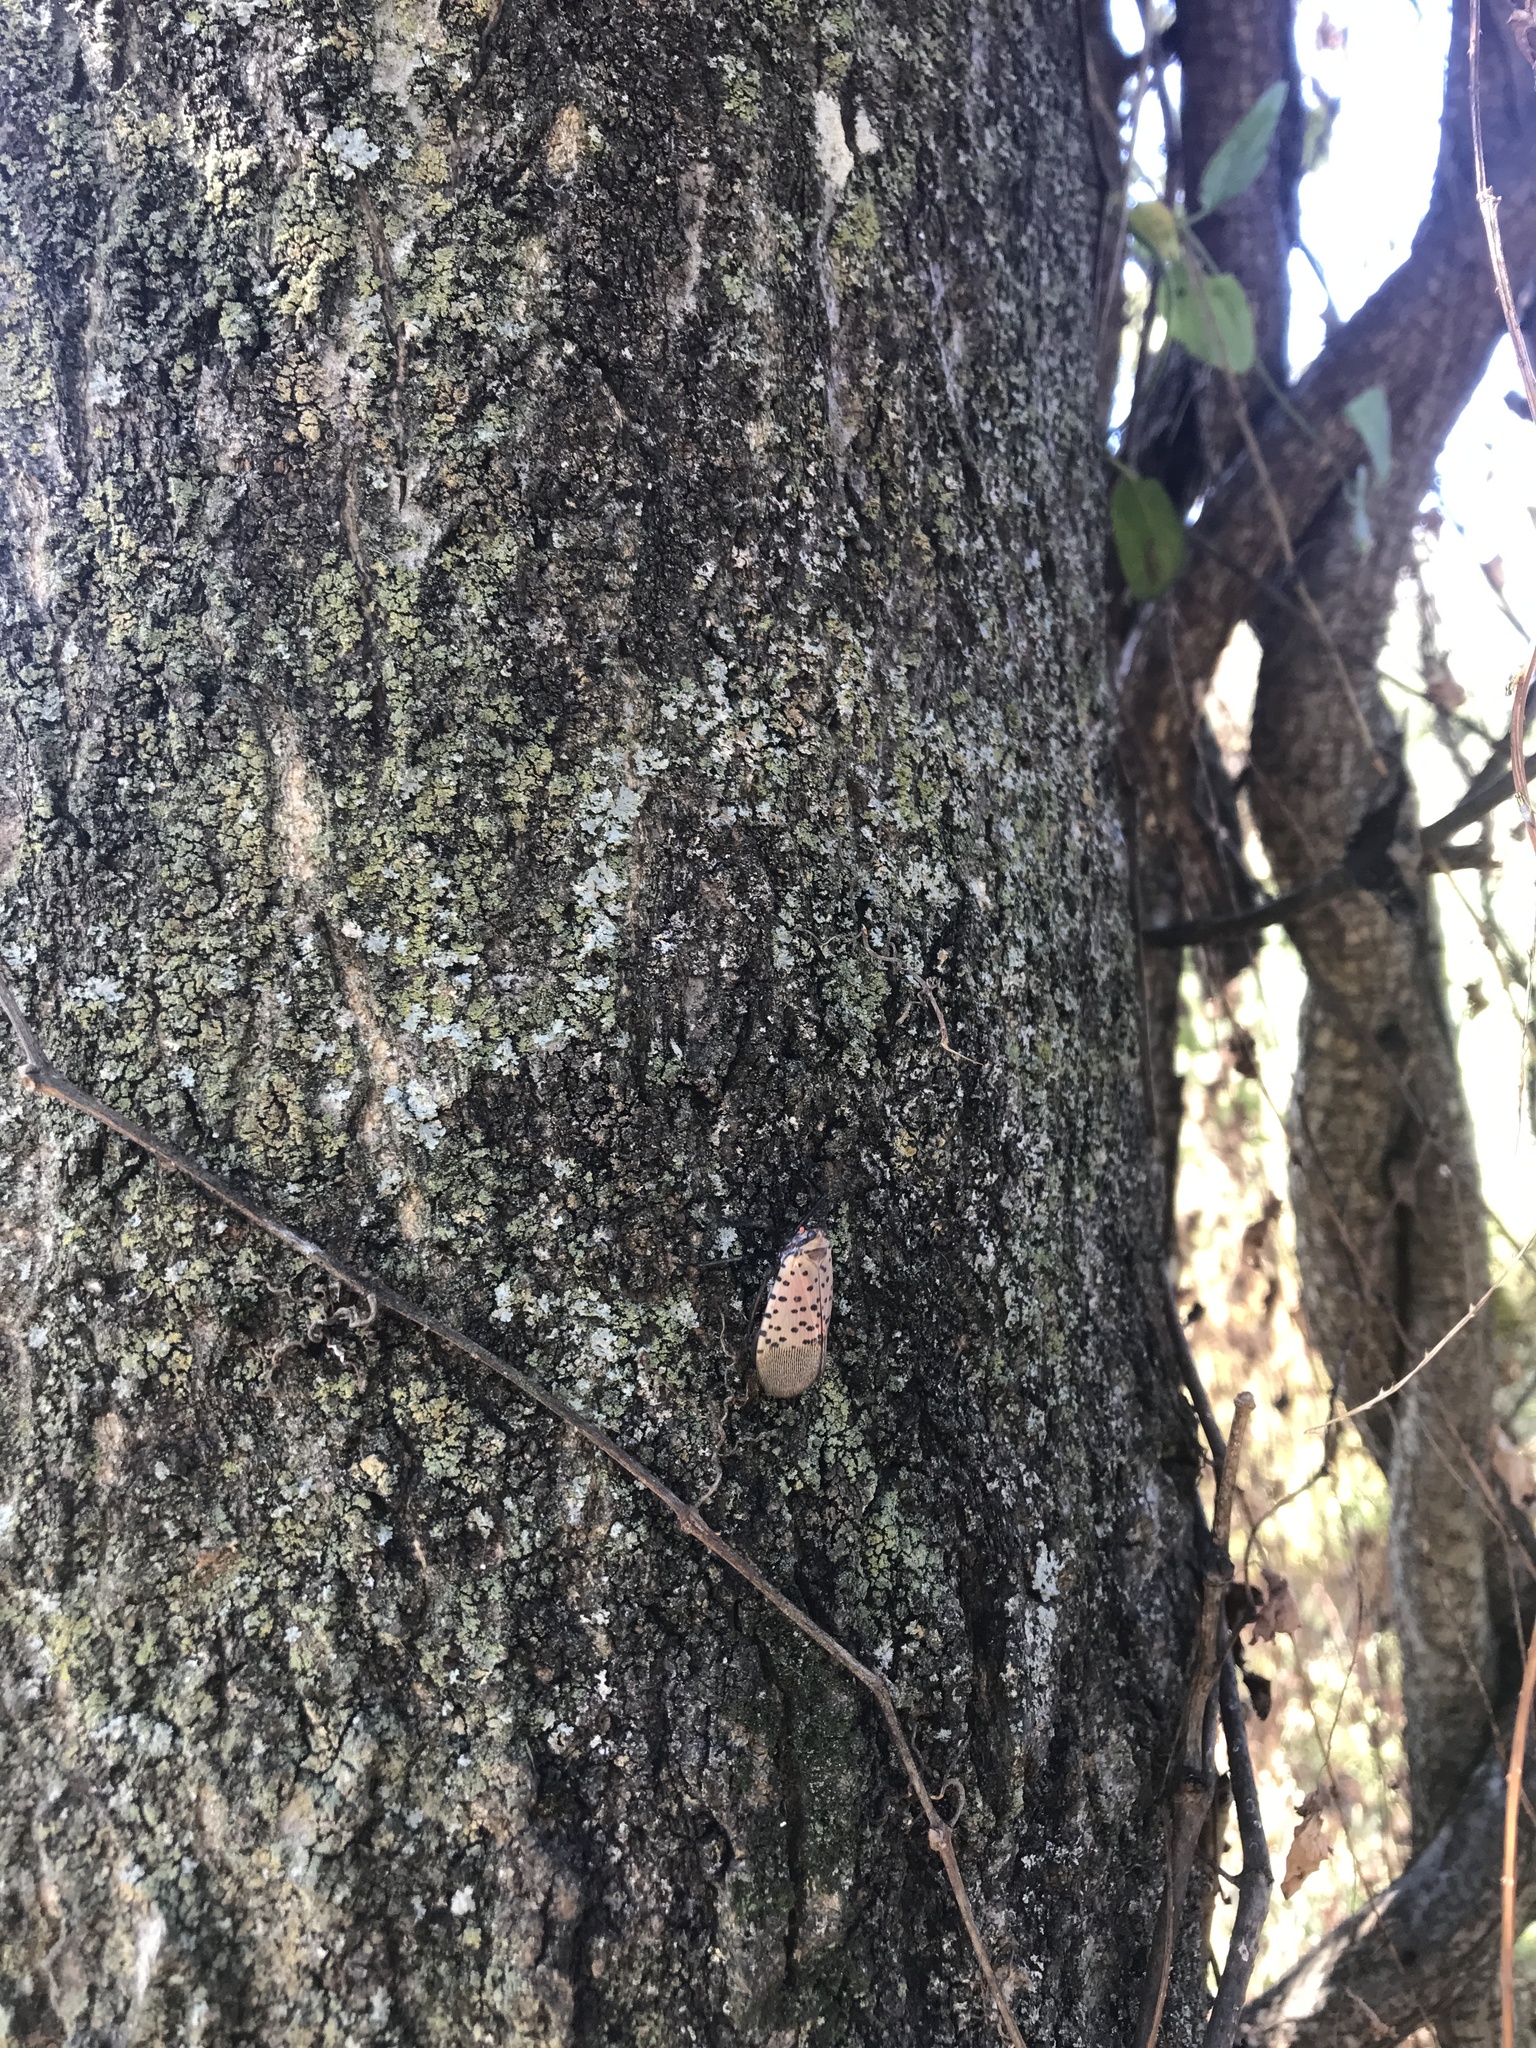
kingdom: Animalia
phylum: Arthropoda
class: Insecta
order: Hemiptera
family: Fulgoridae
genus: Lycorma
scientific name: Lycorma delicatula
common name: Spotted lanternfly
